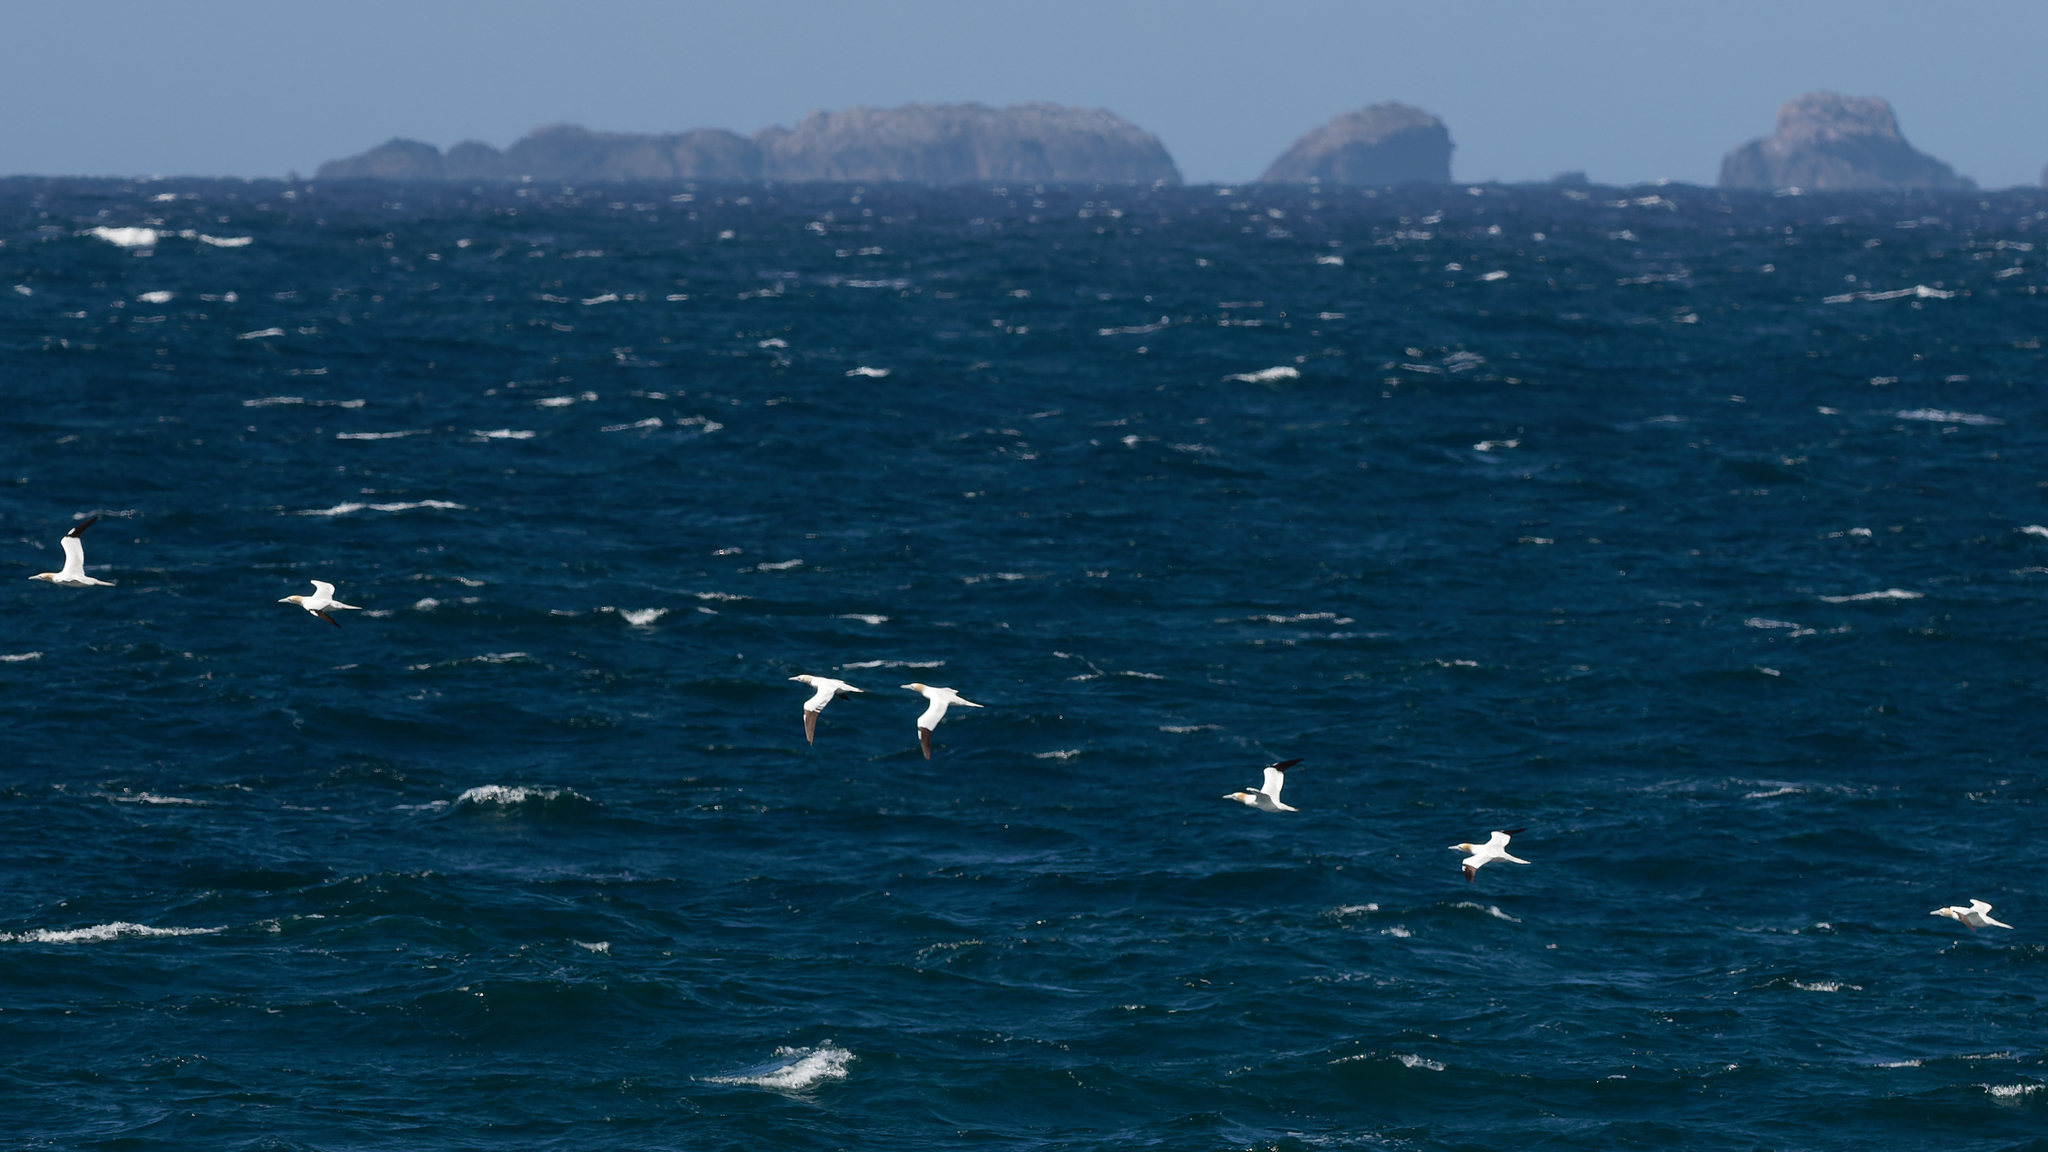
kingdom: Animalia
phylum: Chordata
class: Aves
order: Suliformes
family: Sulidae
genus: Morus
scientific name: Morus bassanus
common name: Northern gannet
